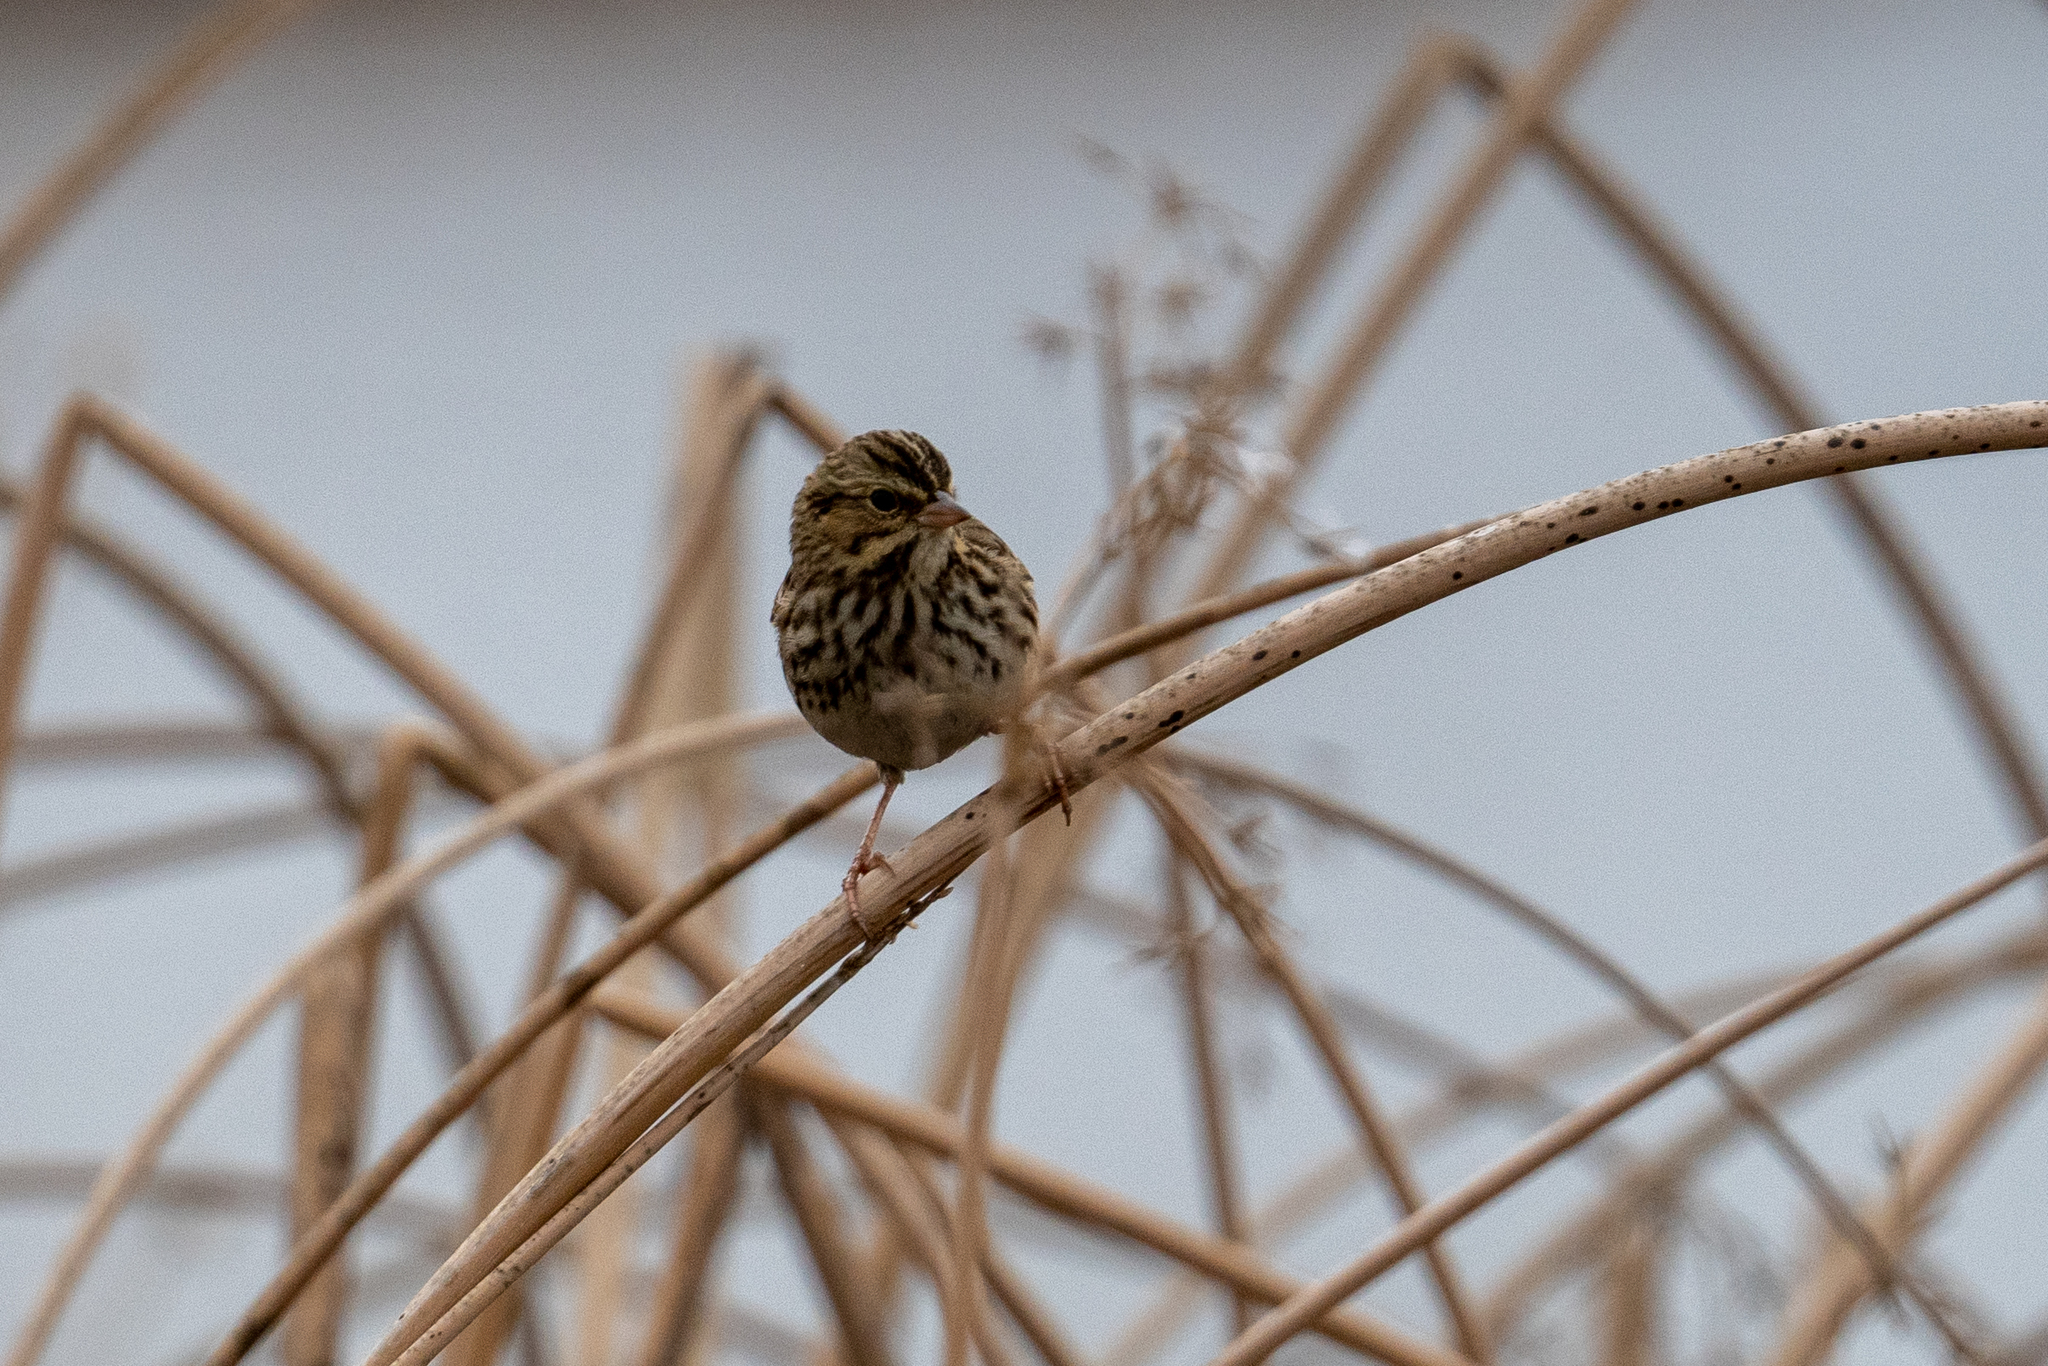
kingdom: Animalia
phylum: Chordata
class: Aves
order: Passeriformes
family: Passerellidae
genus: Passerculus
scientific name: Passerculus sandwichensis
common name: Savannah sparrow
